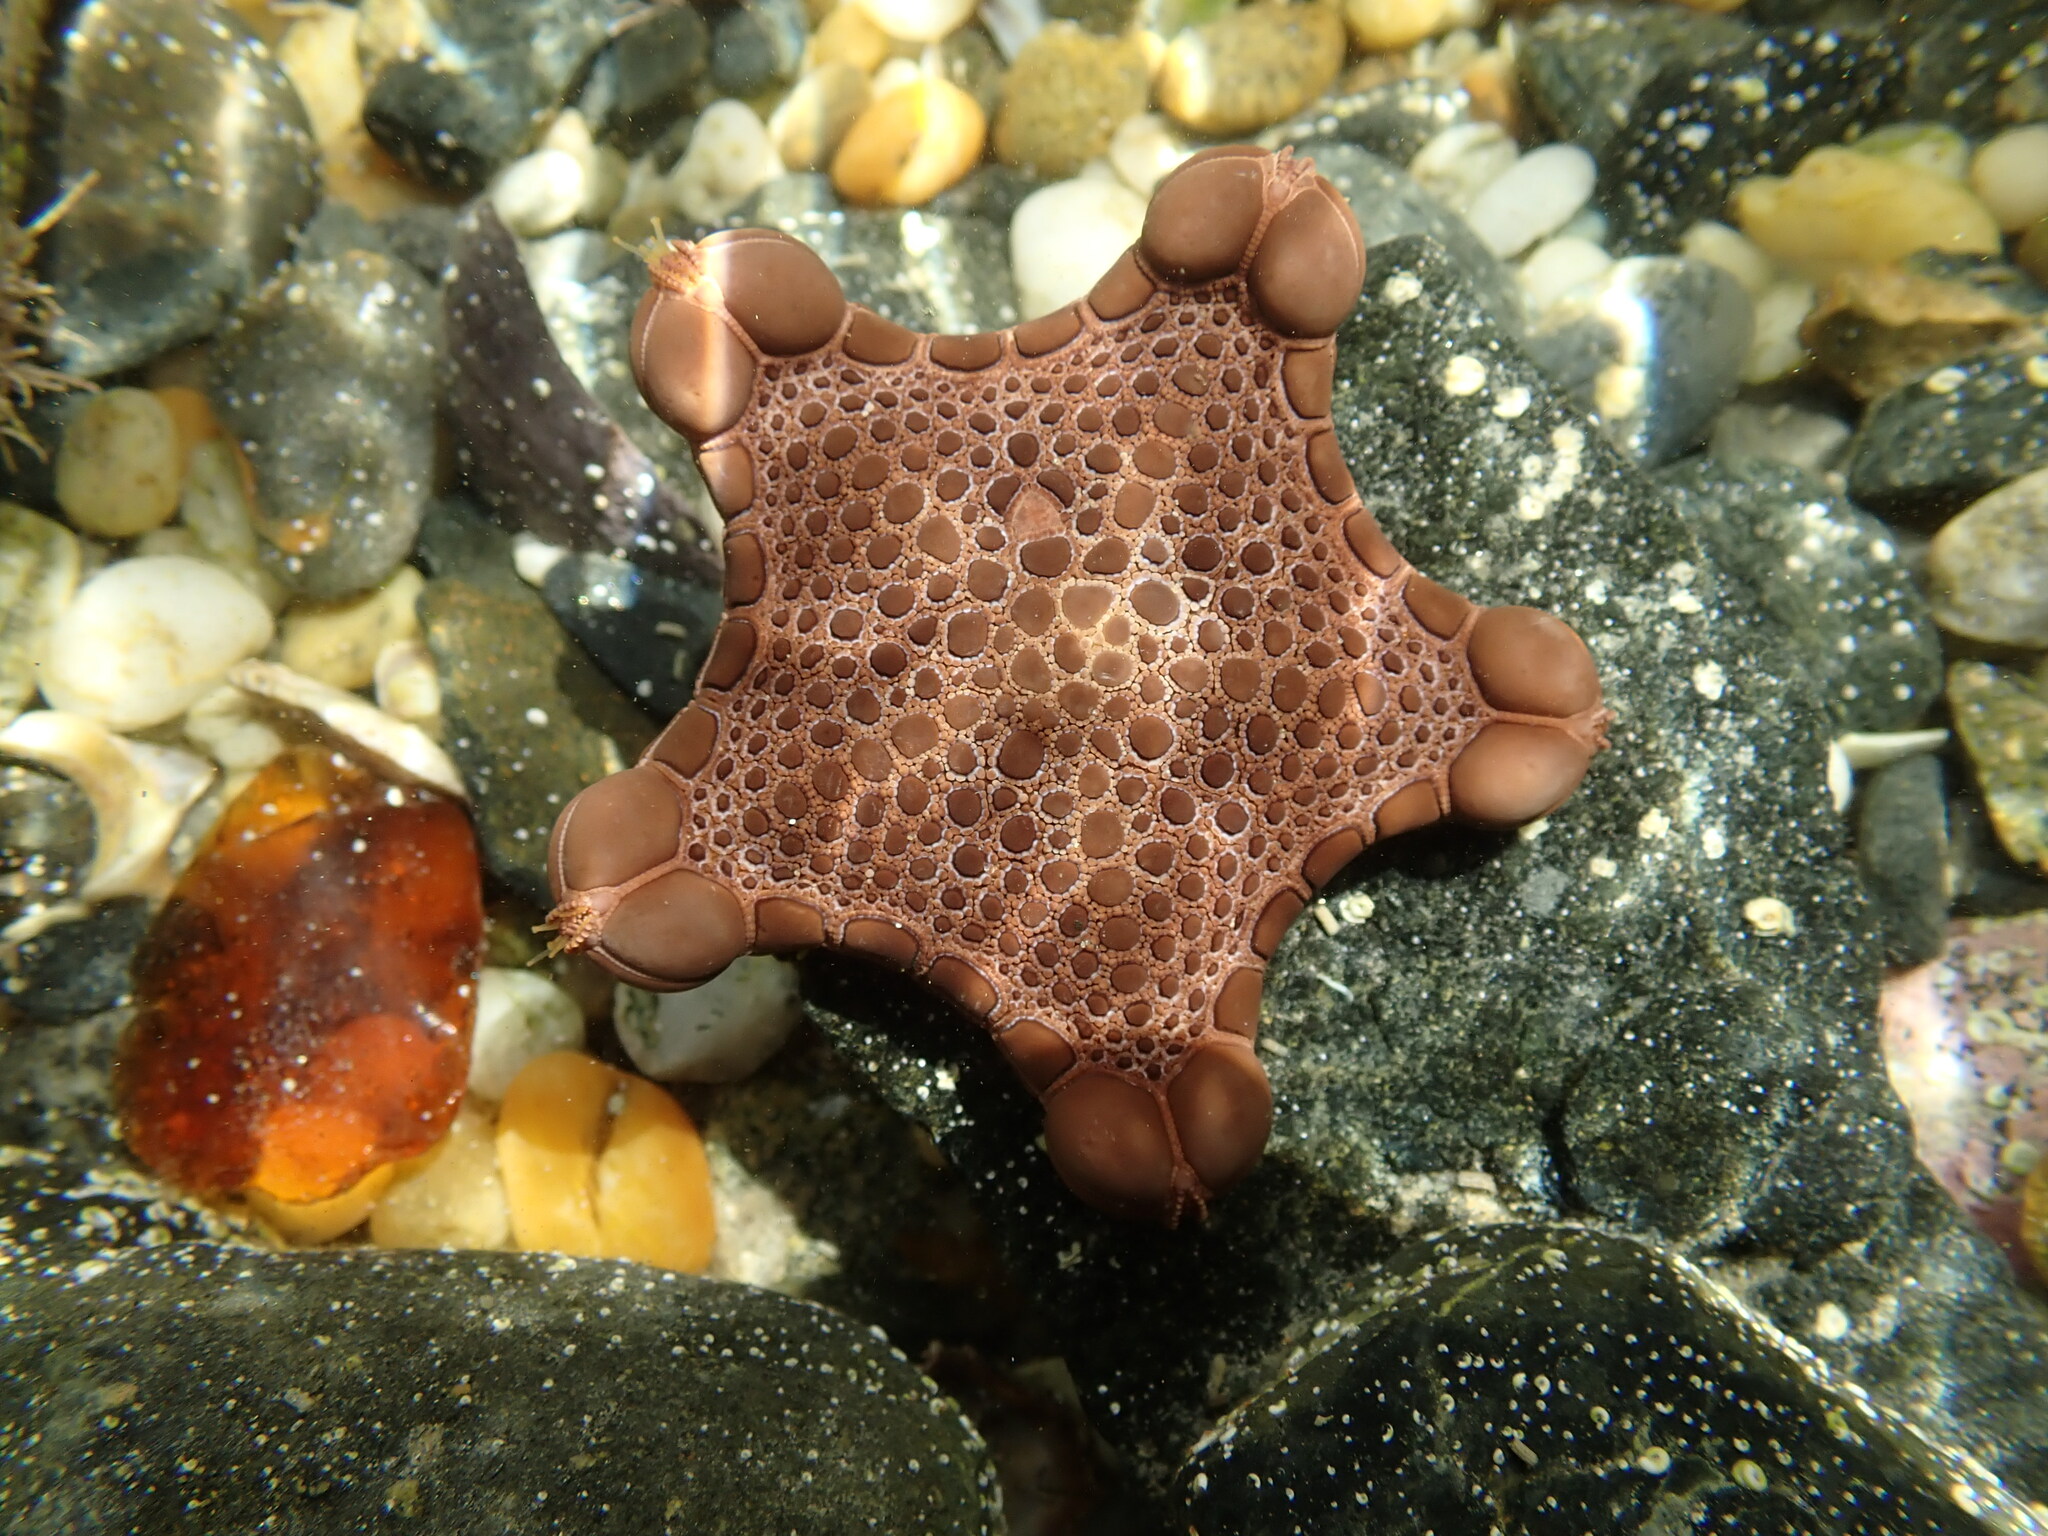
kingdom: Animalia
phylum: Echinodermata
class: Asteroidea
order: Valvatida
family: Goniasteridae
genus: Pentagonaster
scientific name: Pentagonaster pulchellus
